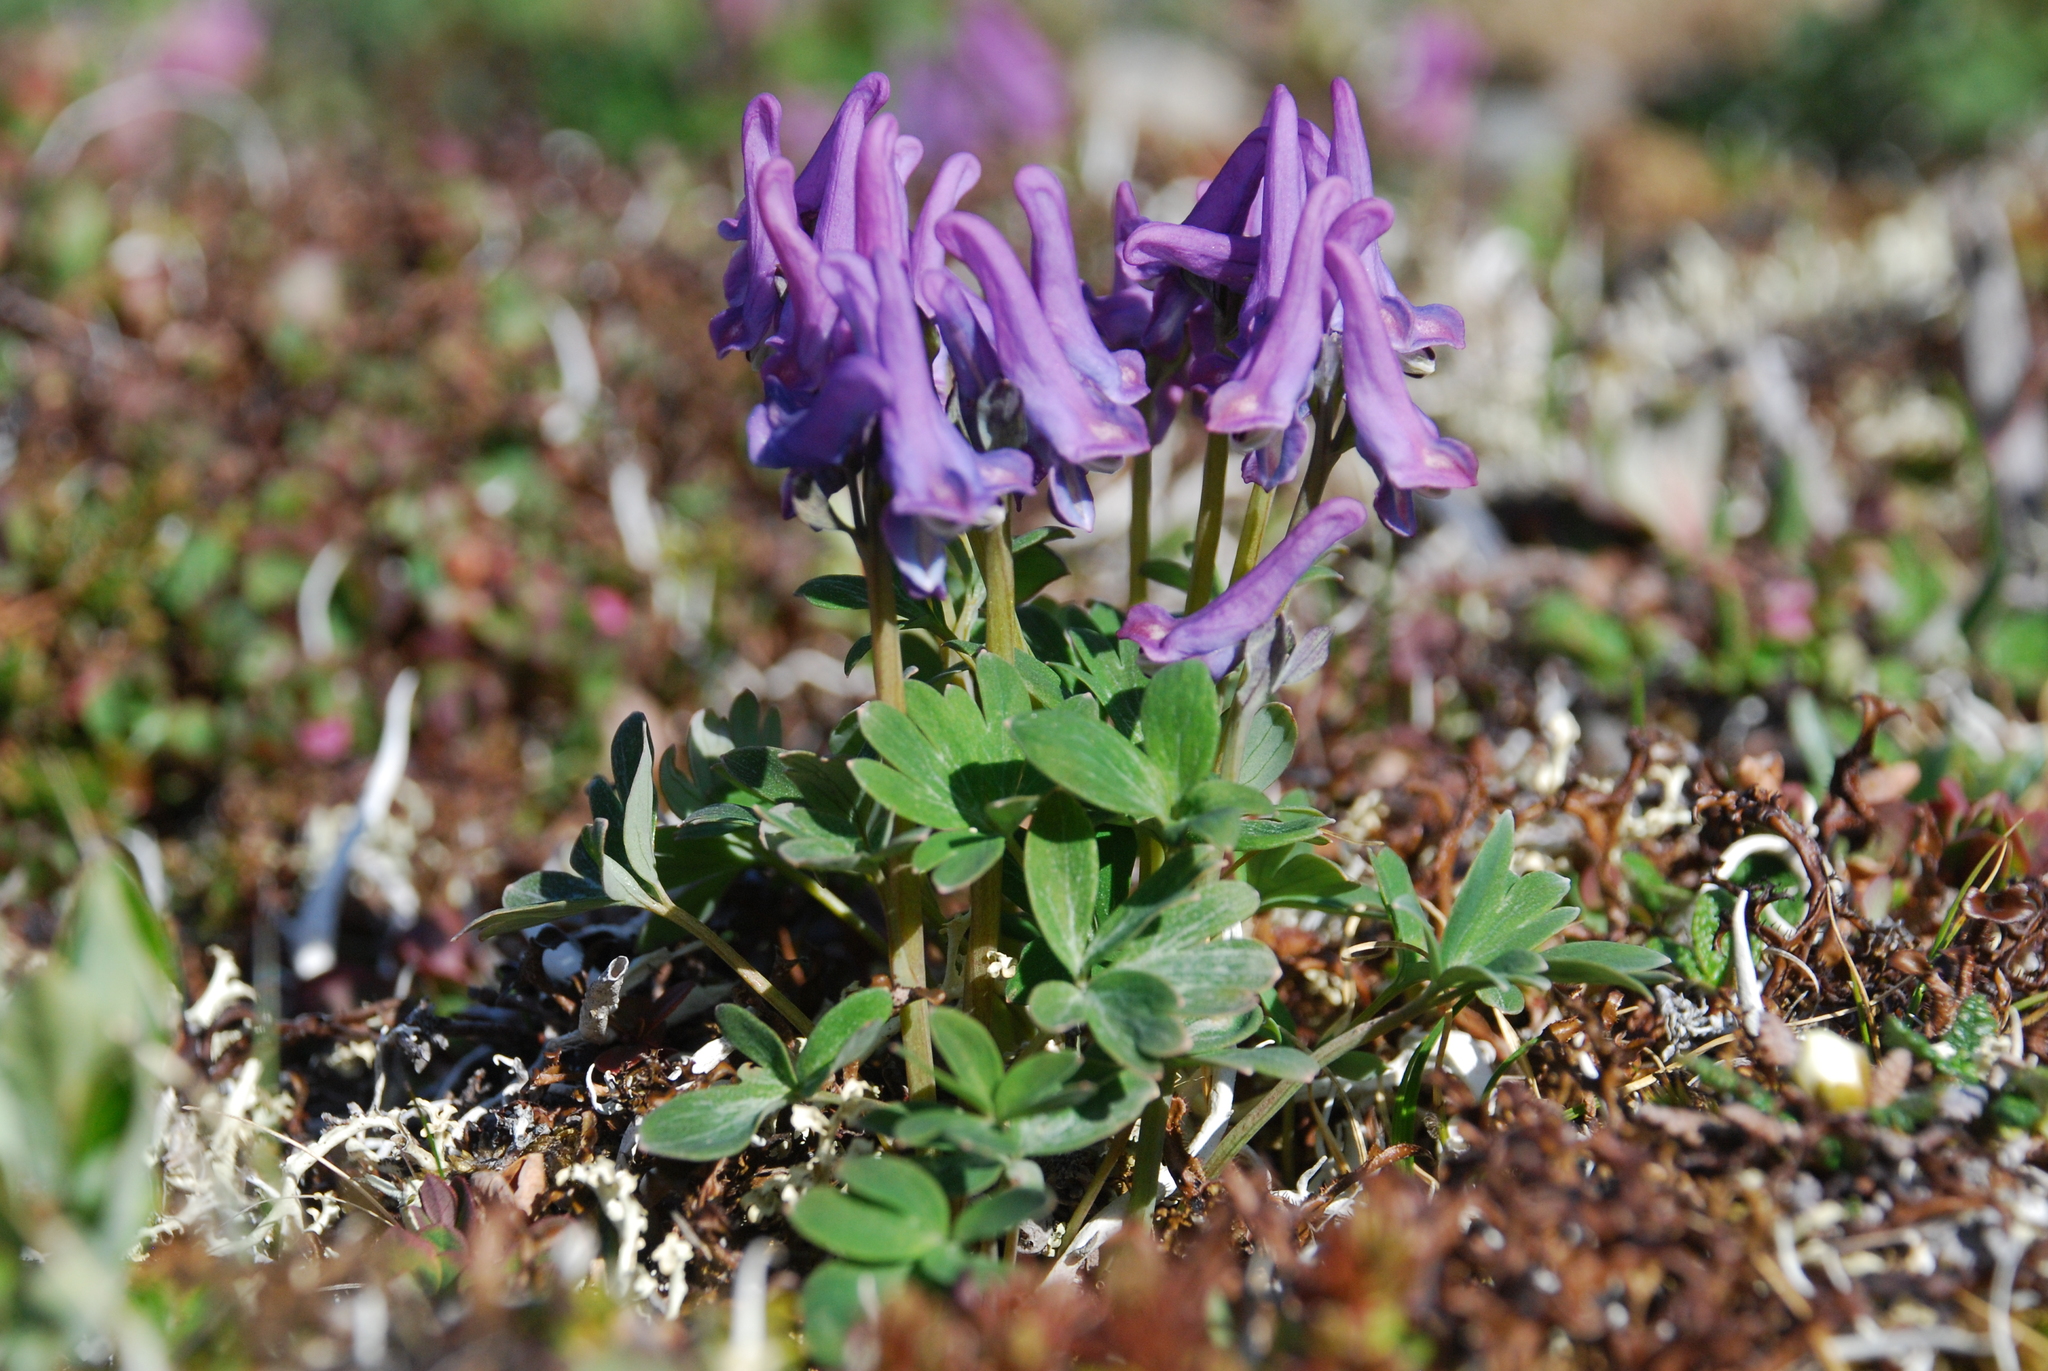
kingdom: Plantae
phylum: Tracheophyta
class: Magnoliopsida
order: Ranunculales
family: Papaveraceae
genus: Corydalis
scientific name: Corydalis arctica
